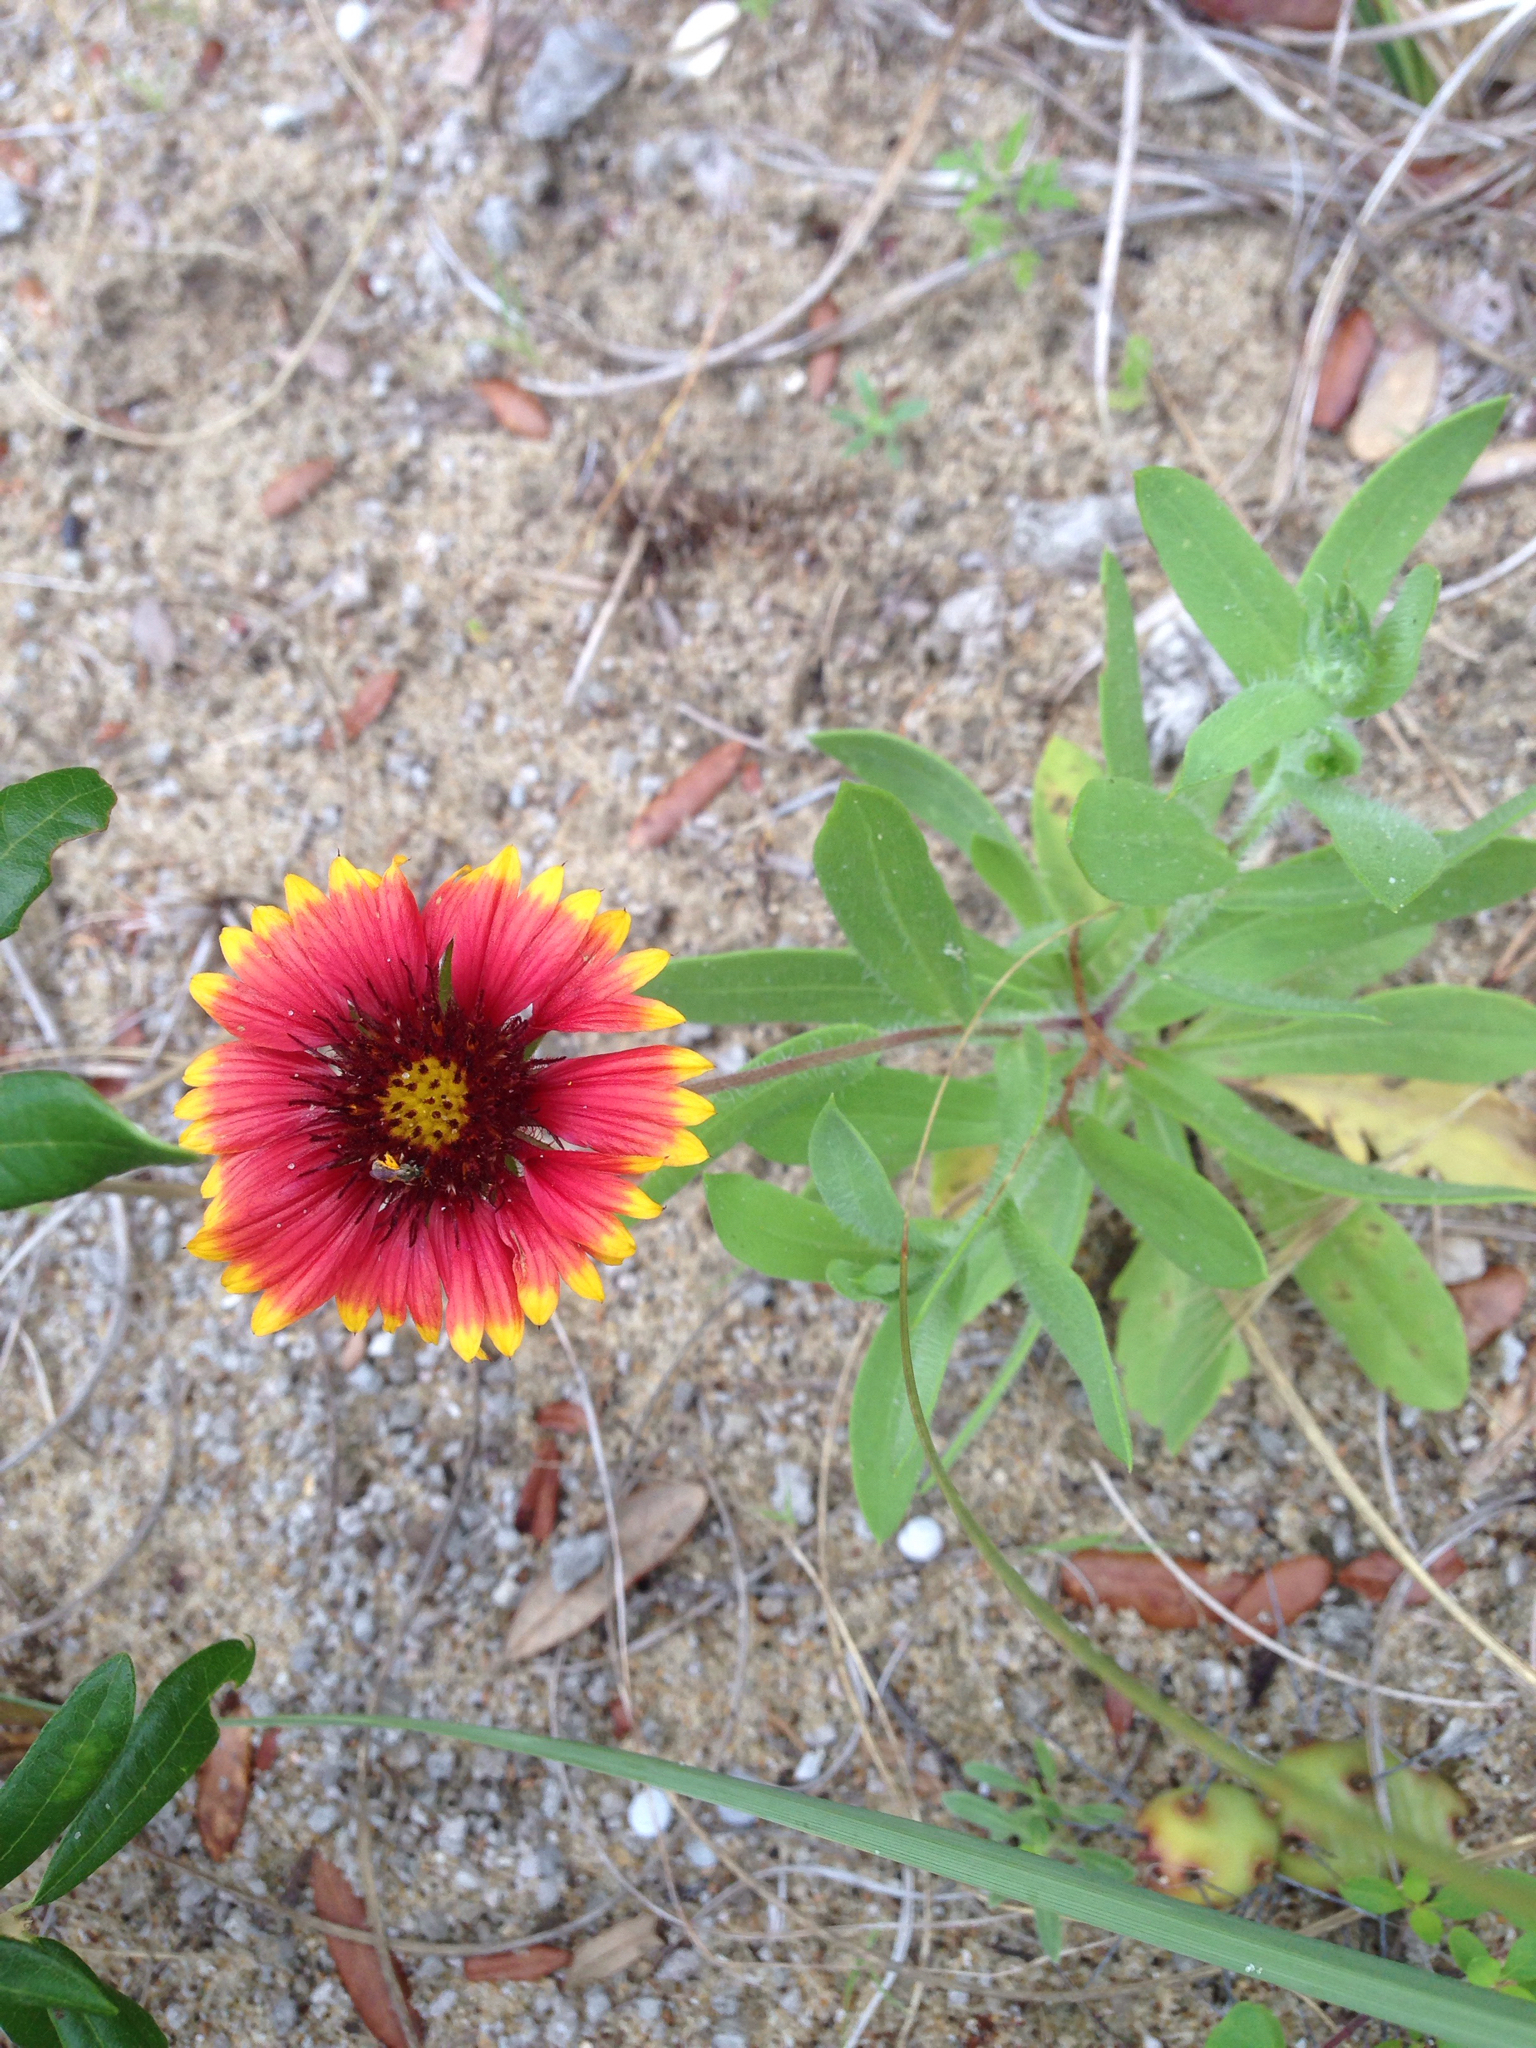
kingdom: Plantae
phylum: Tracheophyta
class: Magnoliopsida
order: Asterales
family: Asteraceae
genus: Gaillardia
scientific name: Gaillardia pulchella
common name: Firewheel
